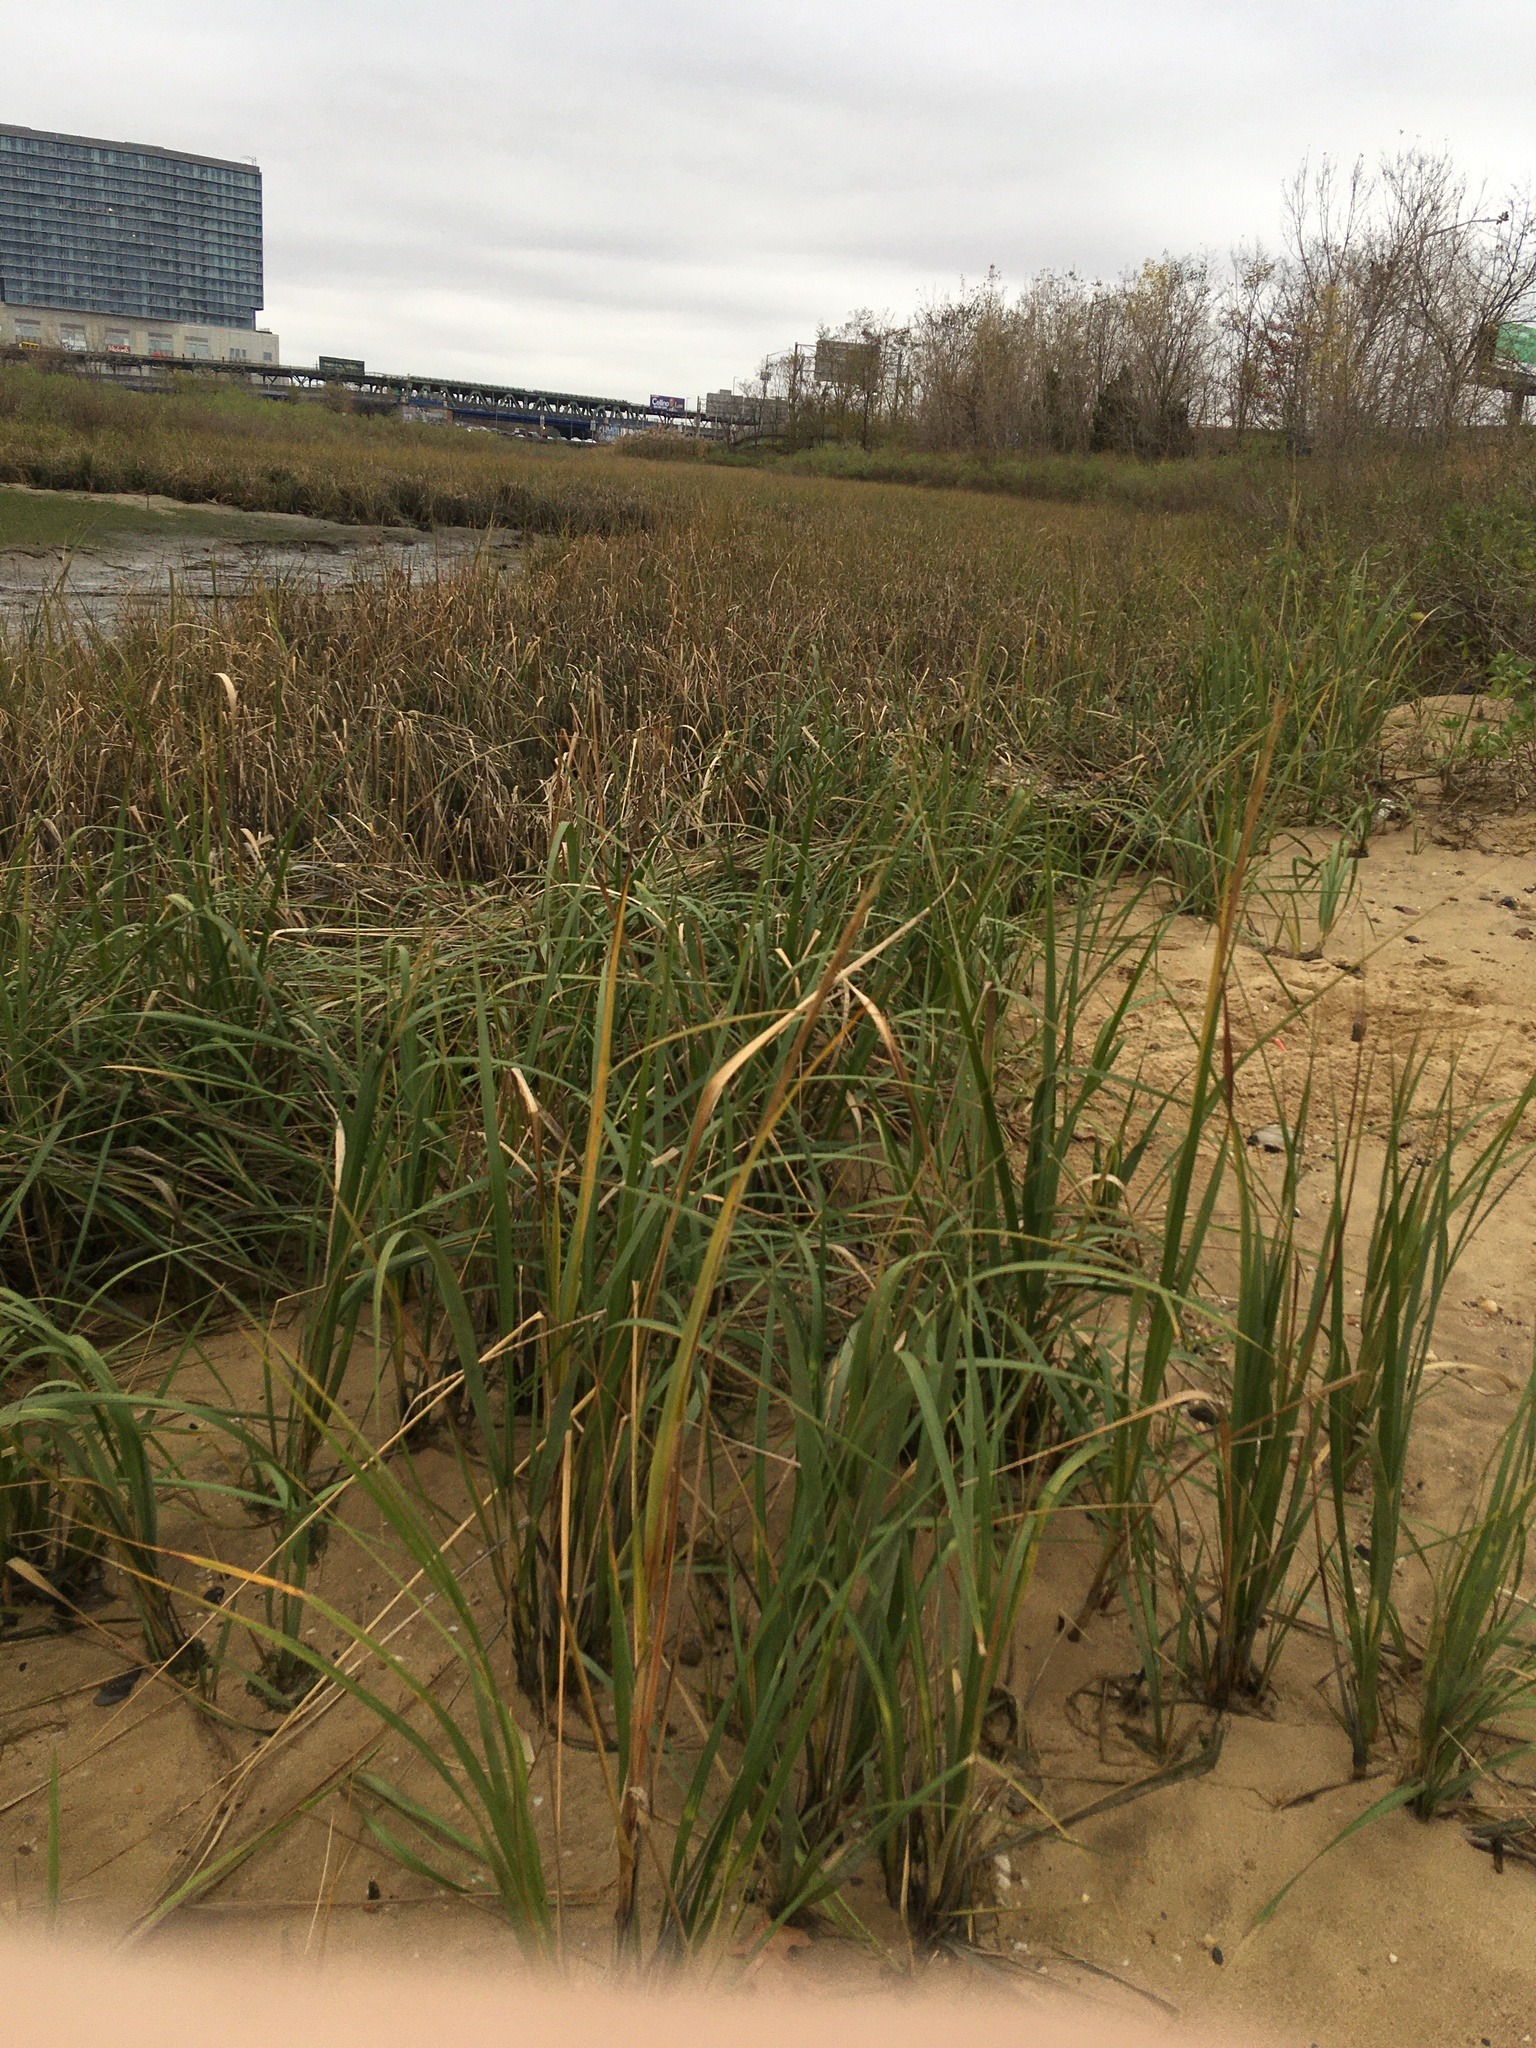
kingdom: Plantae
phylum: Tracheophyta
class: Liliopsida
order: Poales
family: Poaceae
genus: Sporobolus
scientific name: Sporobolus alterniflorus
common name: Atlantic cordgrass
